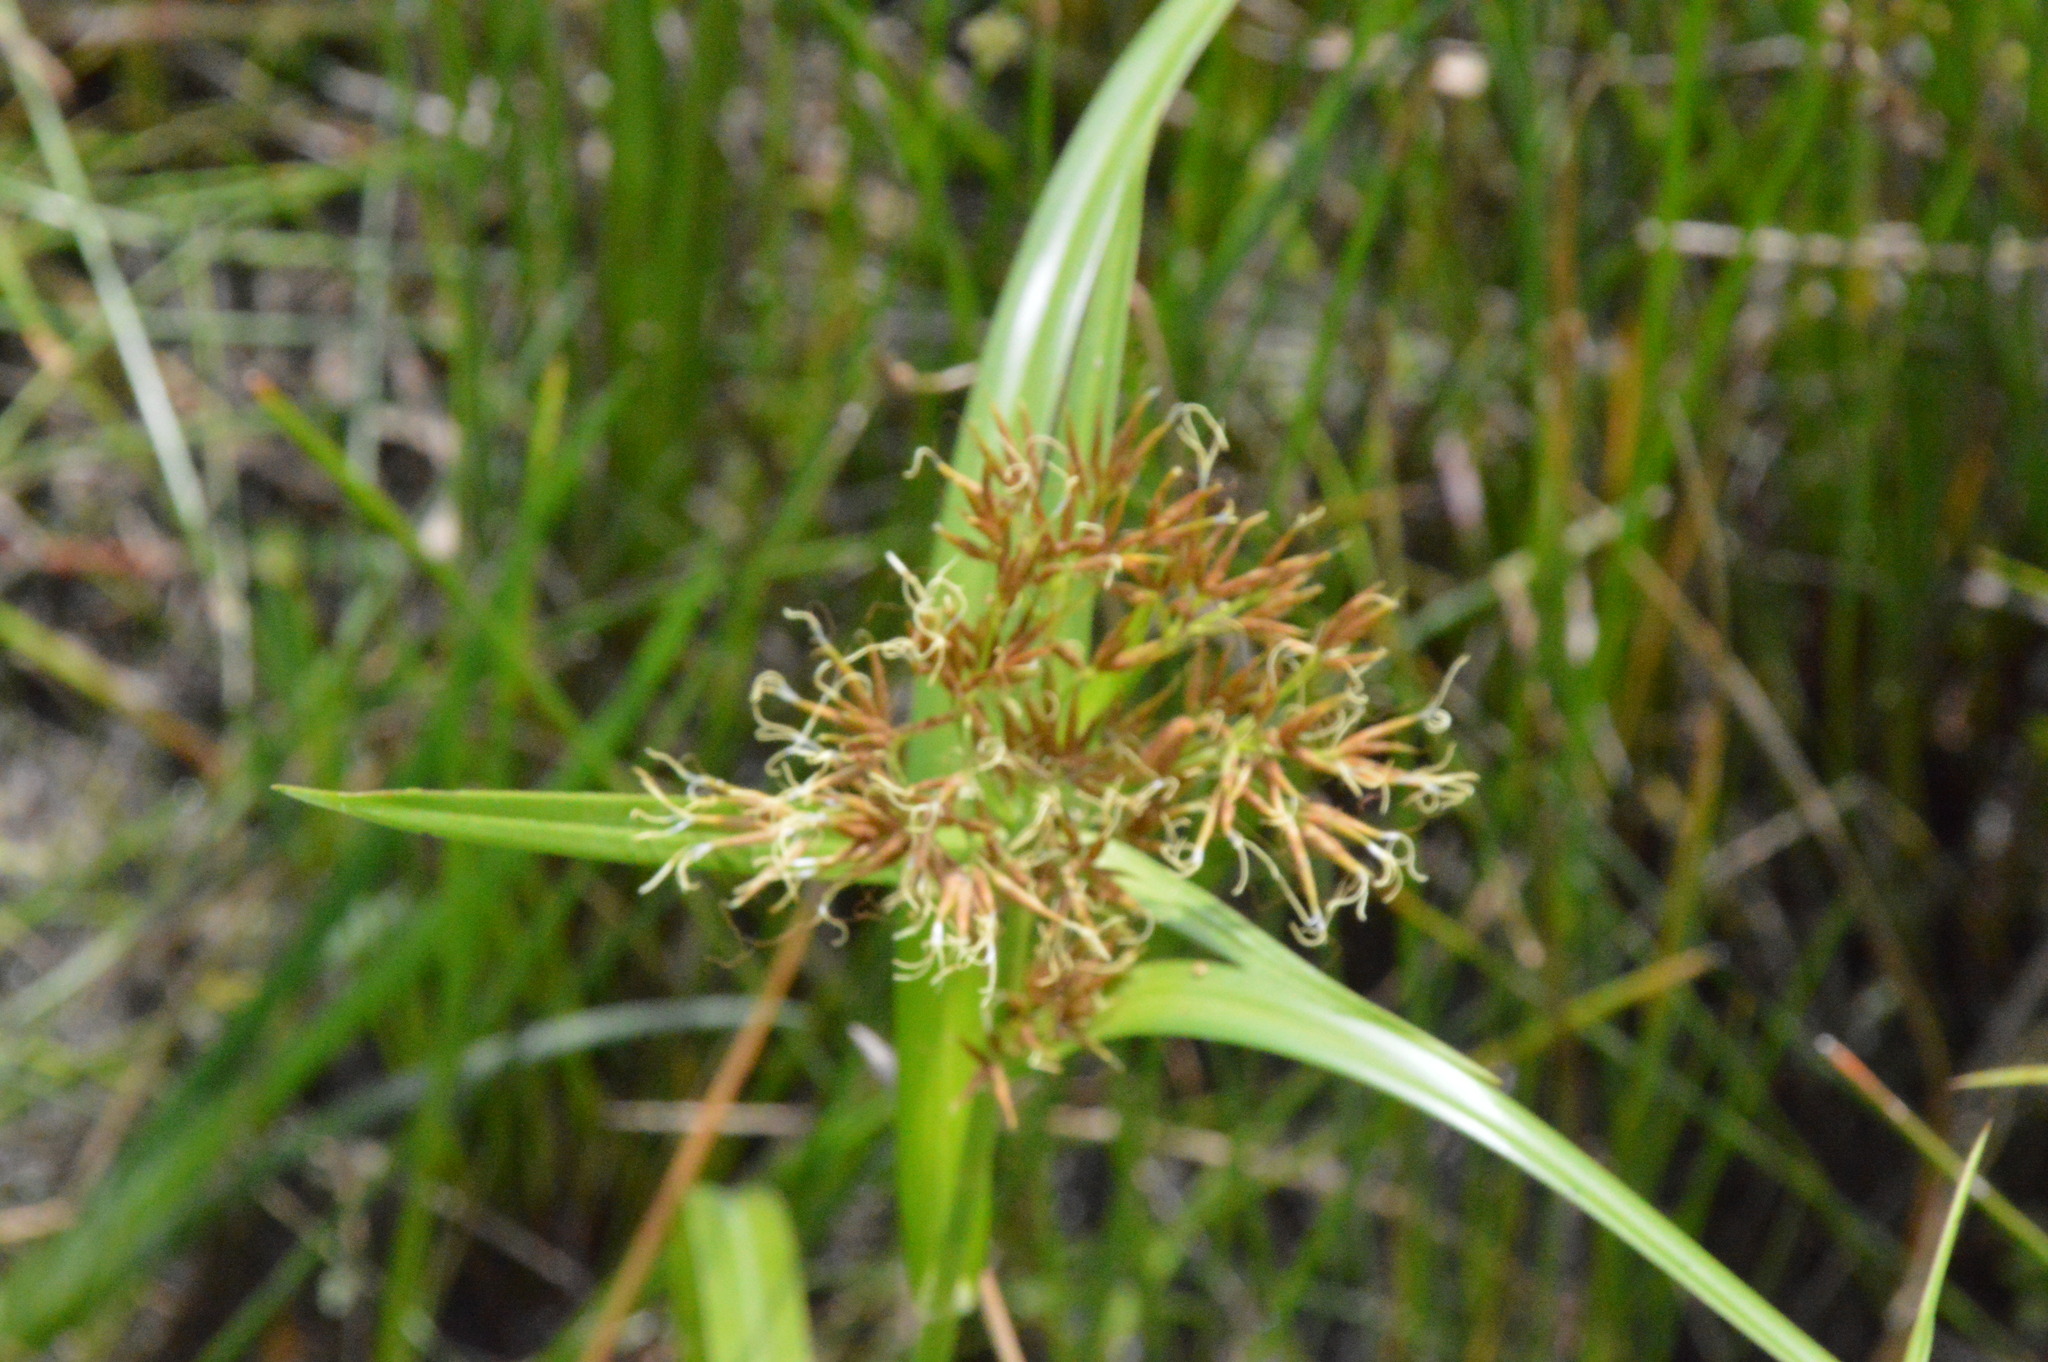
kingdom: Plantae
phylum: Tracheophyta
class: Liliopsida
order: Poales
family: Cyperaceae
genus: Rhynchospora
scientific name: Rhynchospora corniculata
